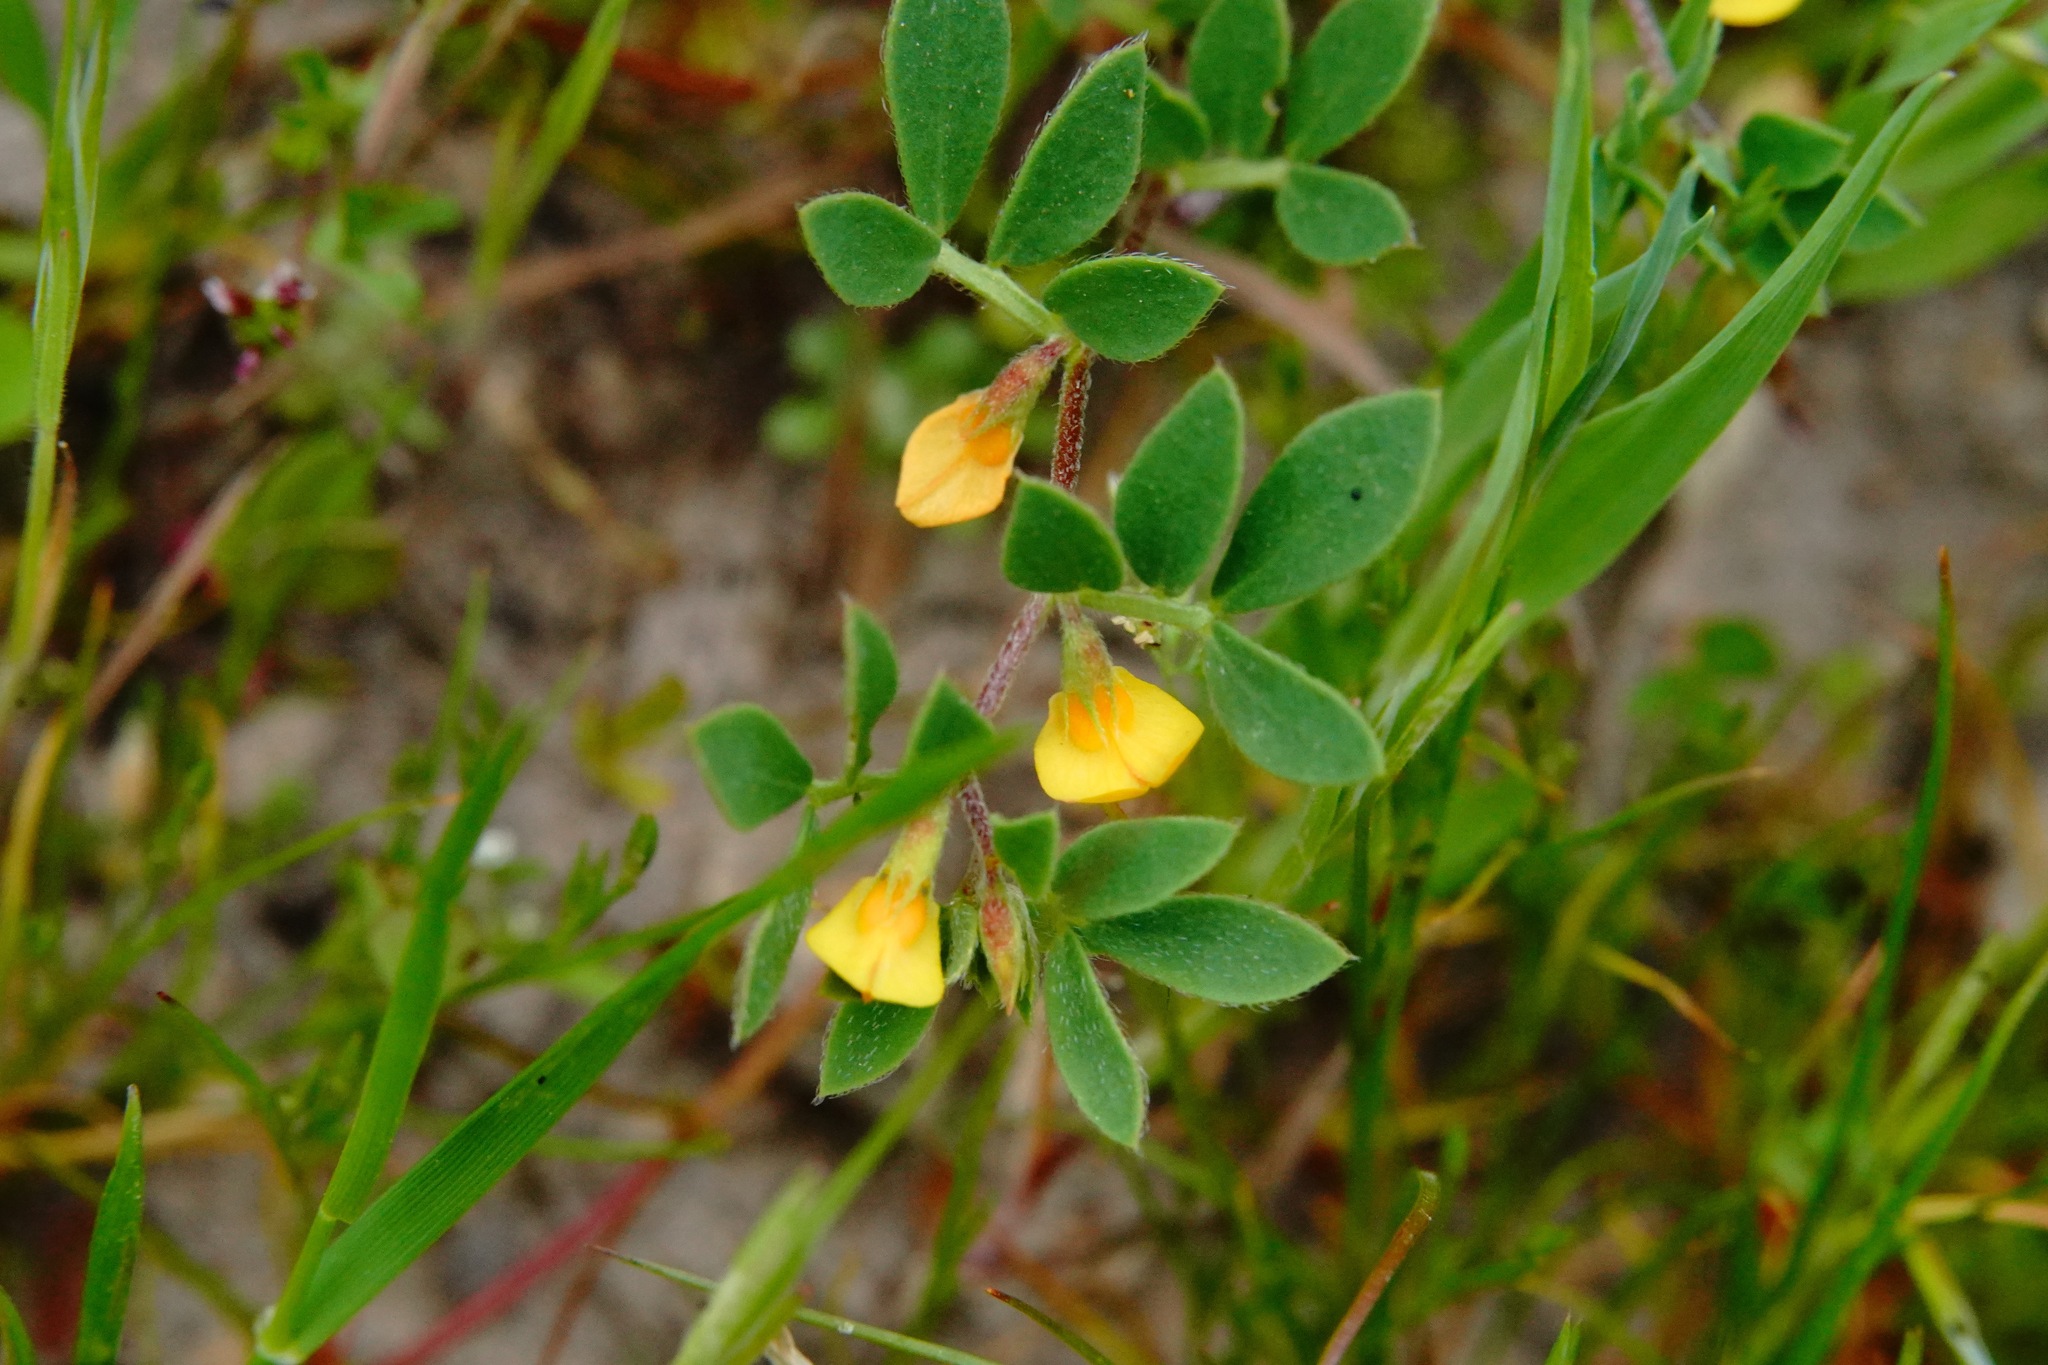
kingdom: Plantae
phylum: Tracheophyta
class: Magnoliopsida
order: Fabales
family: Fabaceae
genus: Acmispon
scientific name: Acmispon wrangelianus
